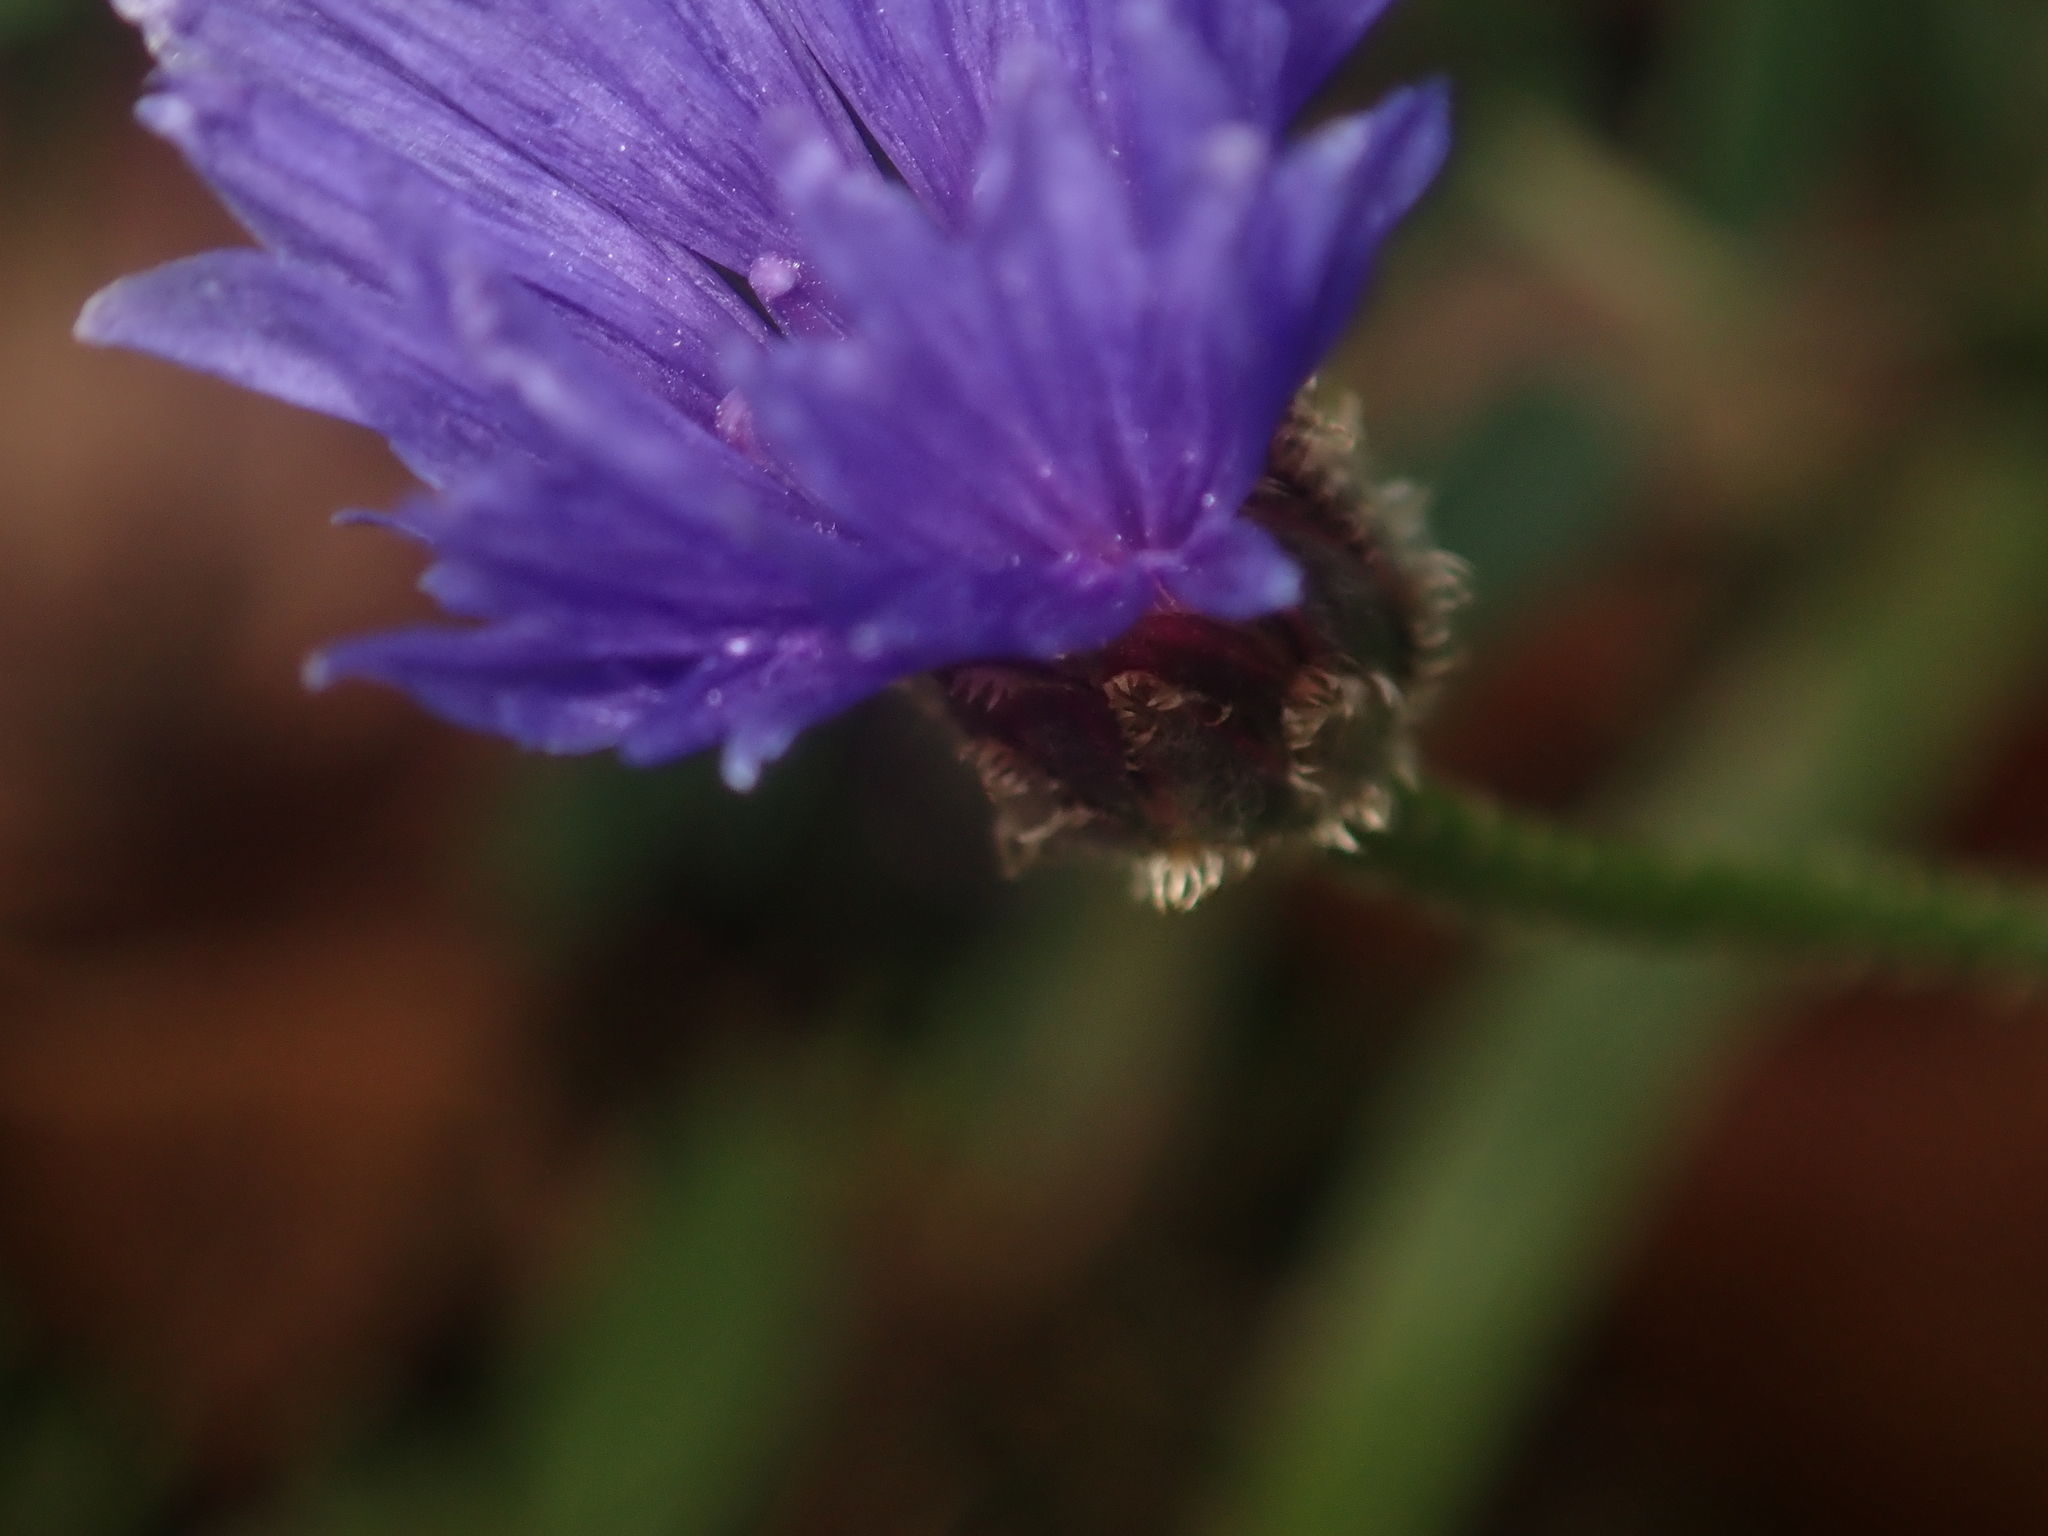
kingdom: Plantae
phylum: Tracheophyta
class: Magnoliopsida
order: Asterales
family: Asteraceae
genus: Centaurea
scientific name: Centaurea cyanus
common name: Cornflower
